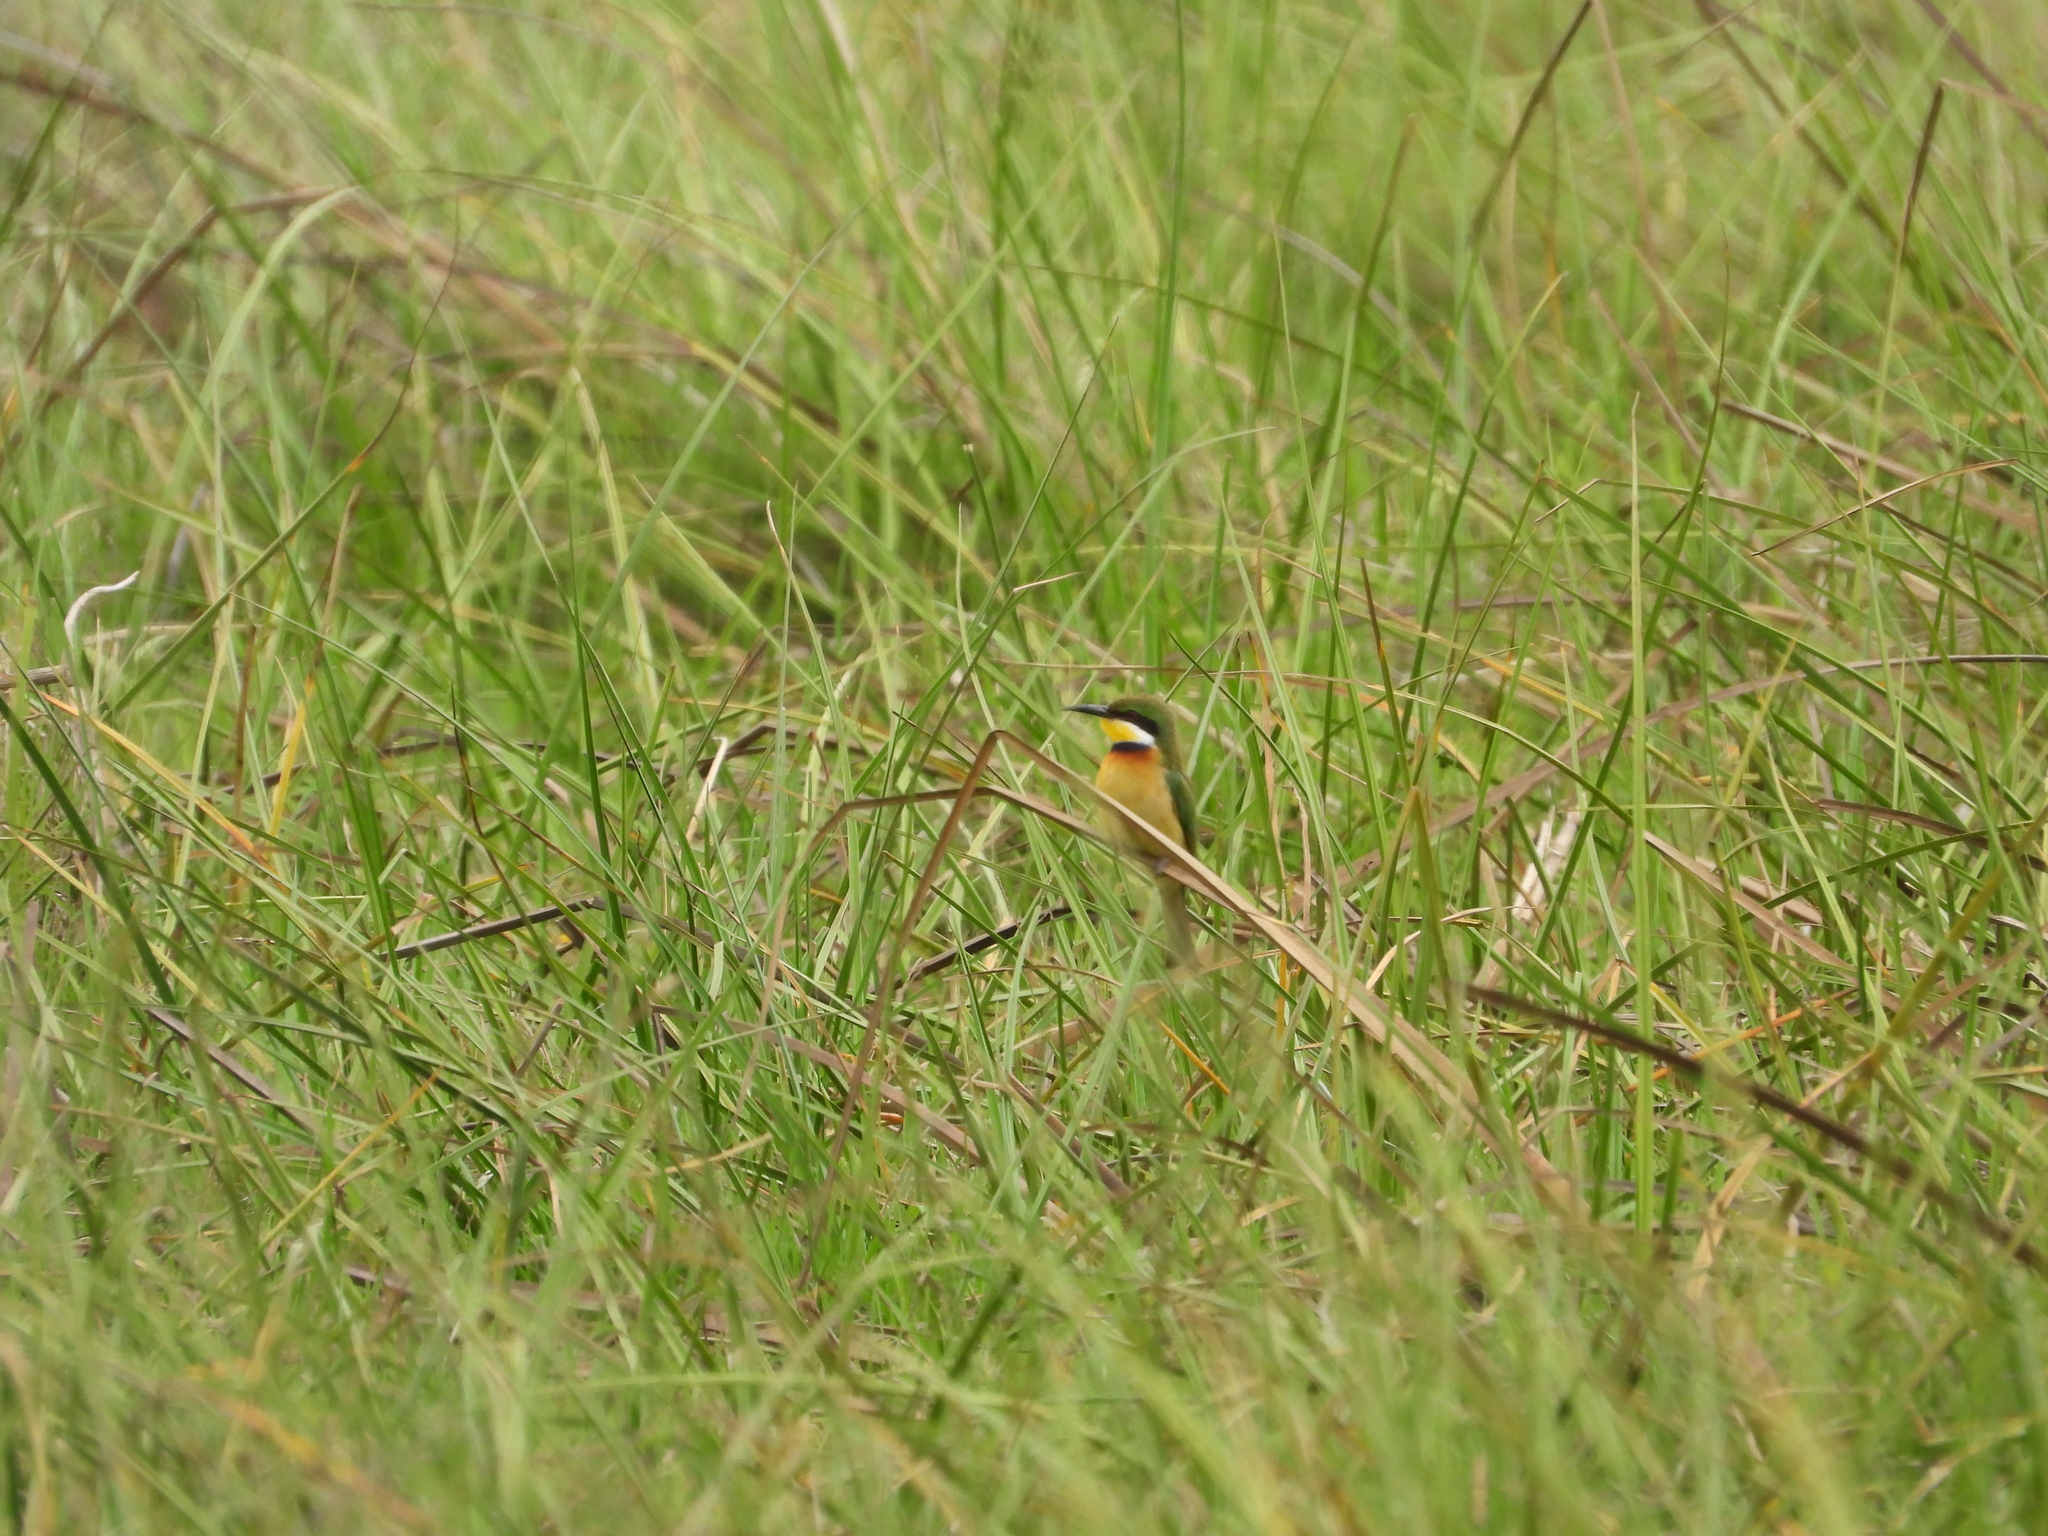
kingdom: Animalia
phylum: Chordata
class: Aves
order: Coraciiformes
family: Meropidae
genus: Merops
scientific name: Merops variegatus
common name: Blue-breasted bee-eater
